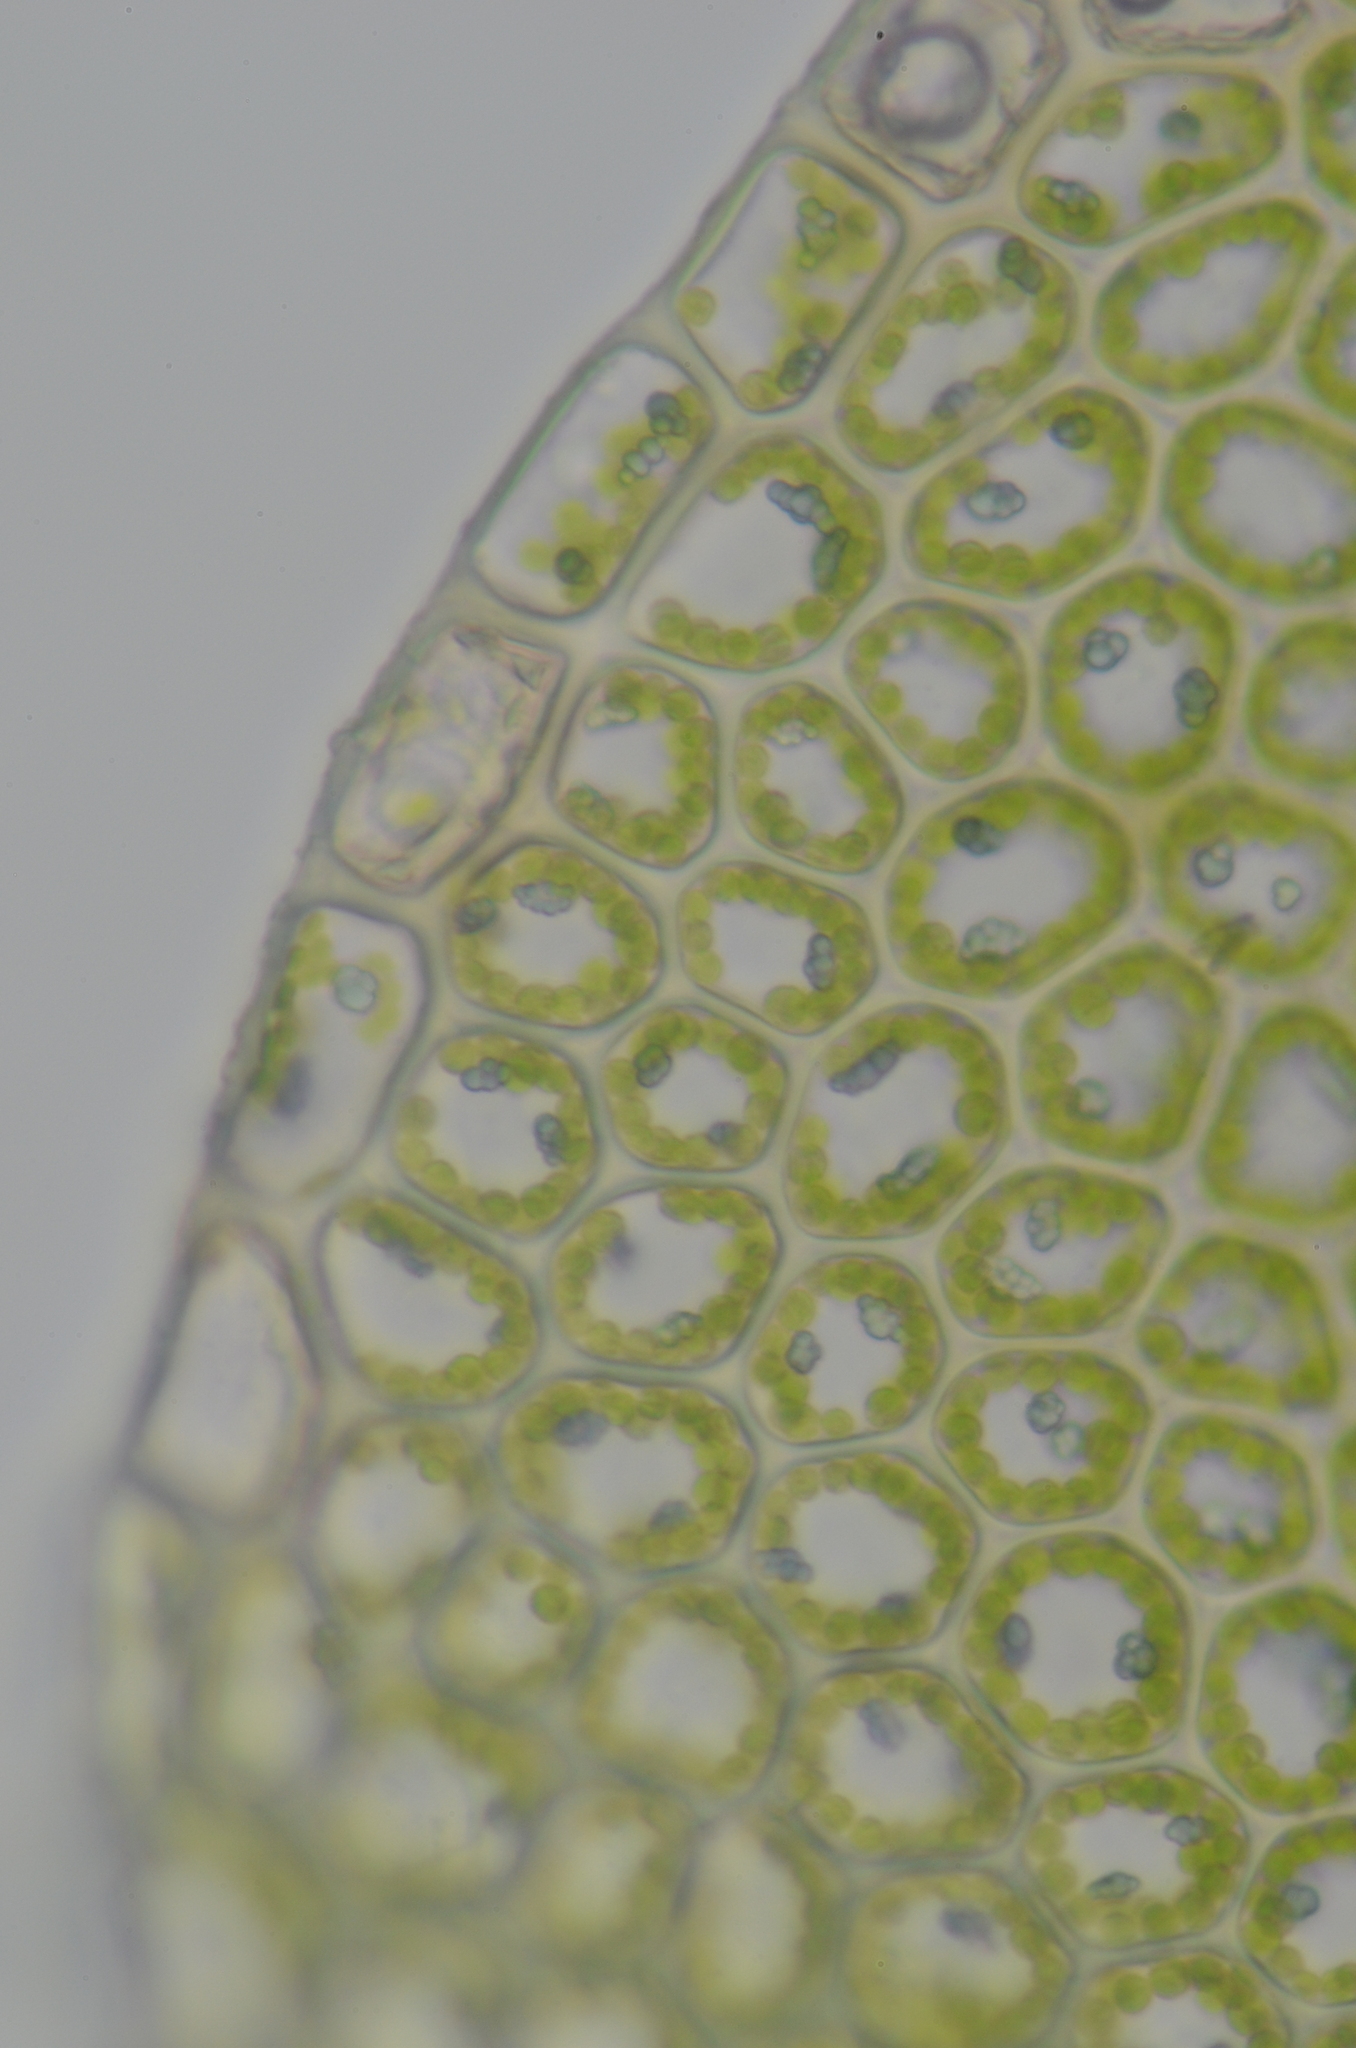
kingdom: Plantae
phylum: Marchantiophyta
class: Jungermanniopsida
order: Jungermanniales
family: Calypogeiaceae
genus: Calypogeia
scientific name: Calypogeia azurea
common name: Blue pouchwort
